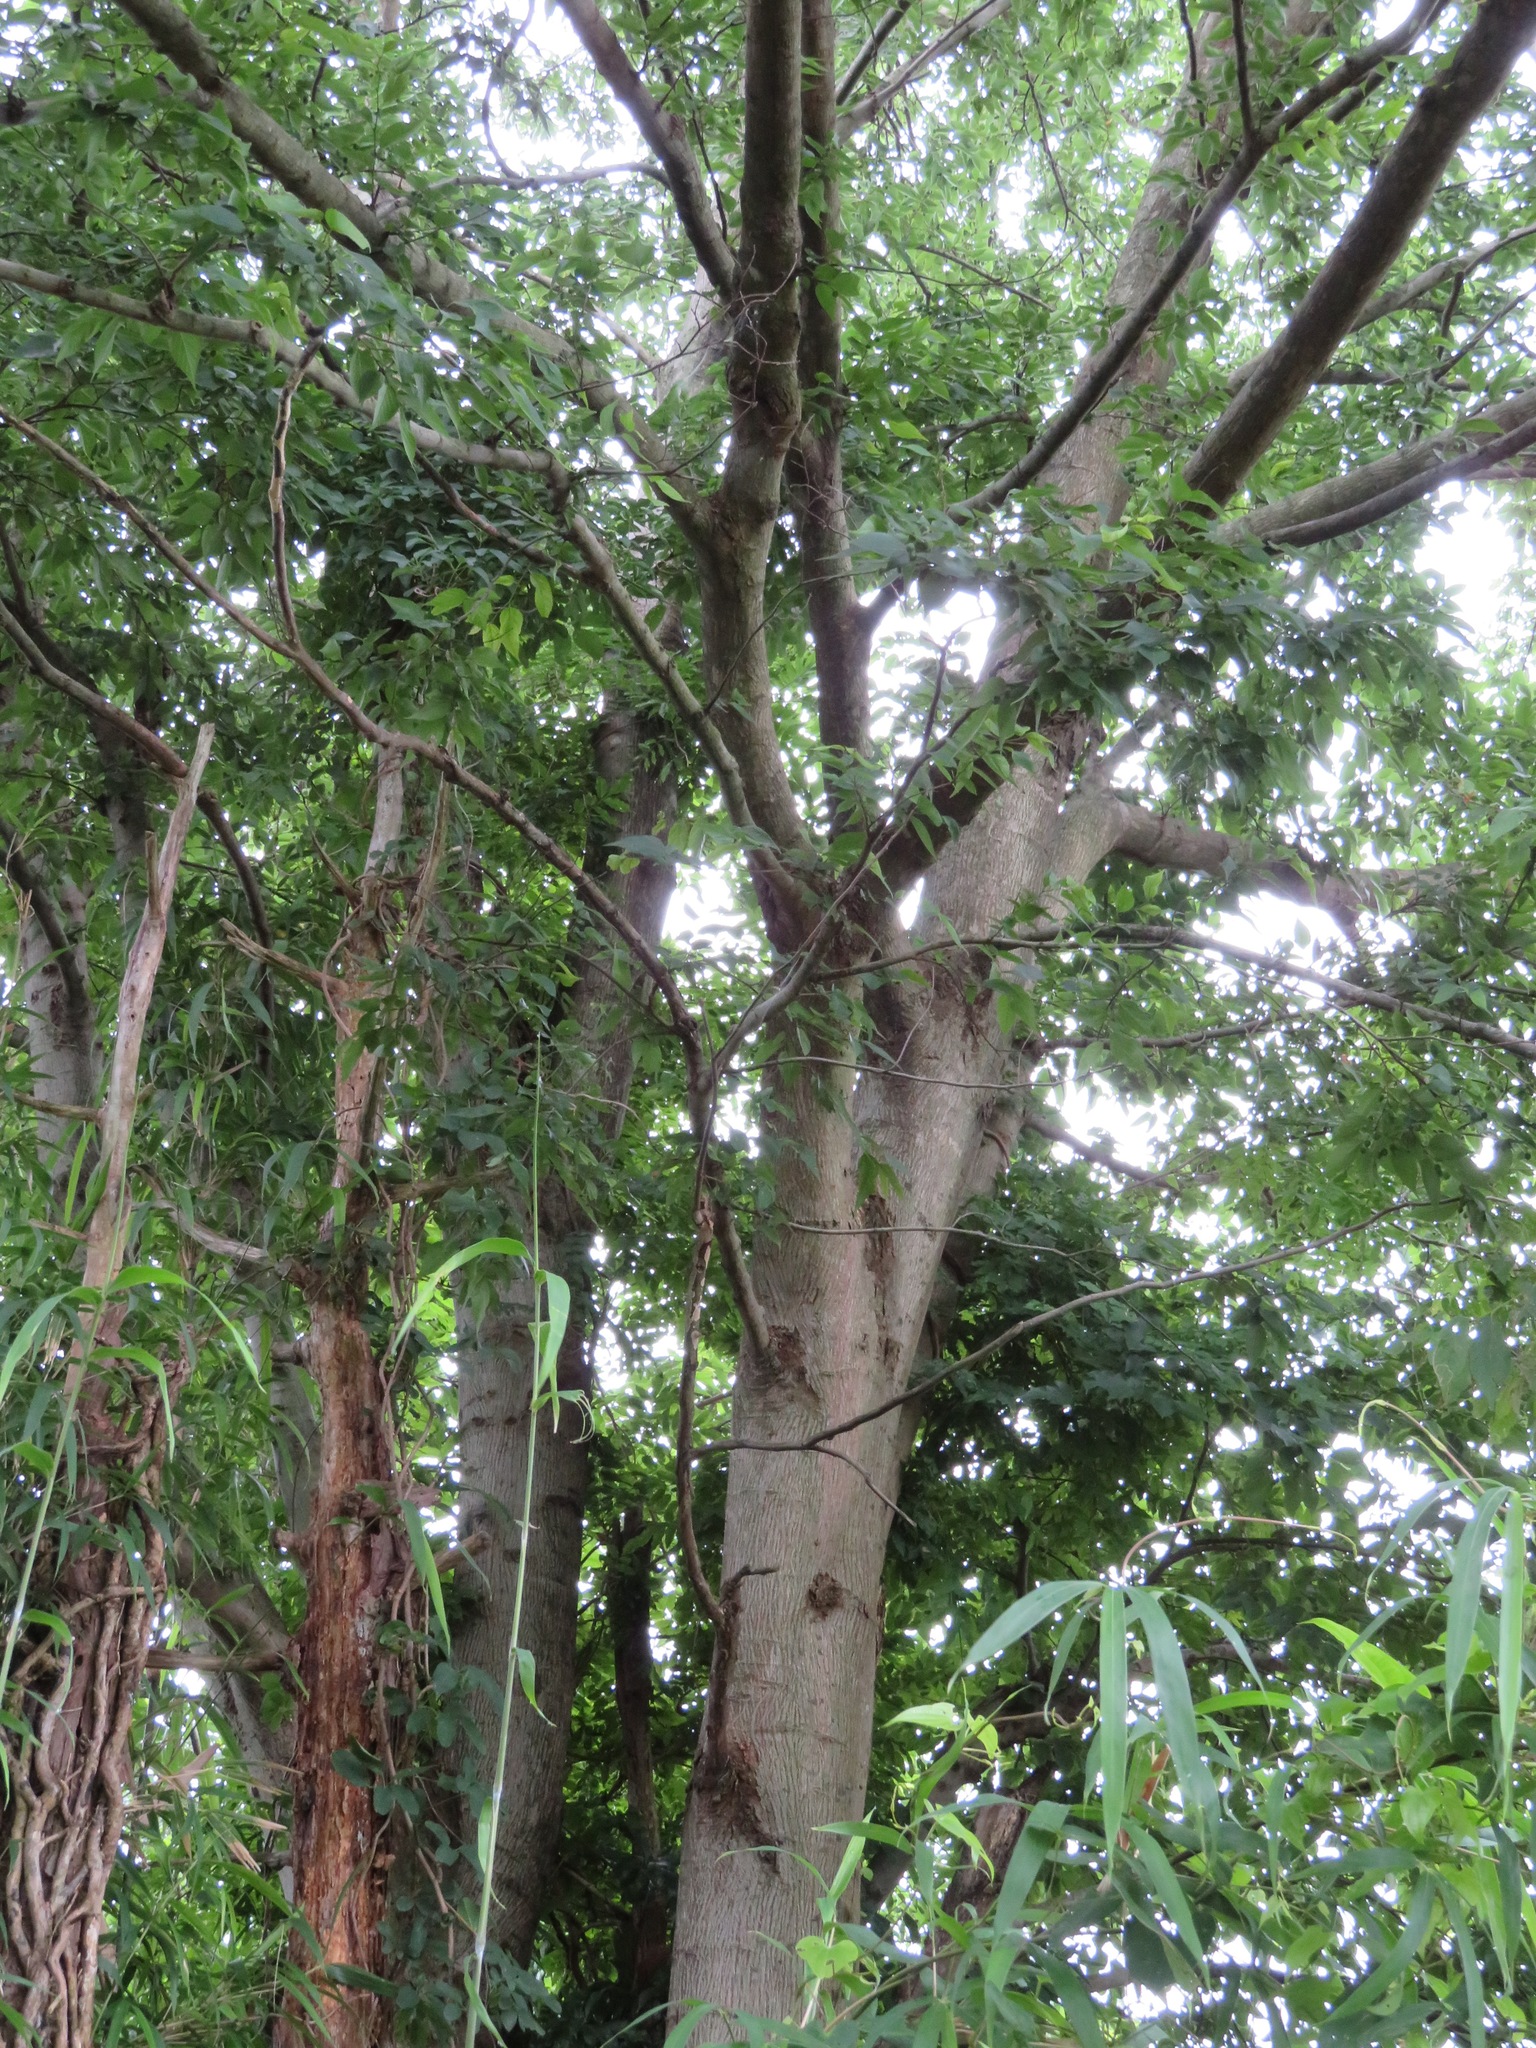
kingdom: Plantae
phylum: Tracheophyta
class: Magnoliopsida
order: Rosales
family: Cannabaceae
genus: Aphananthe
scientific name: Aphananthe aspera
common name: Mukutree
